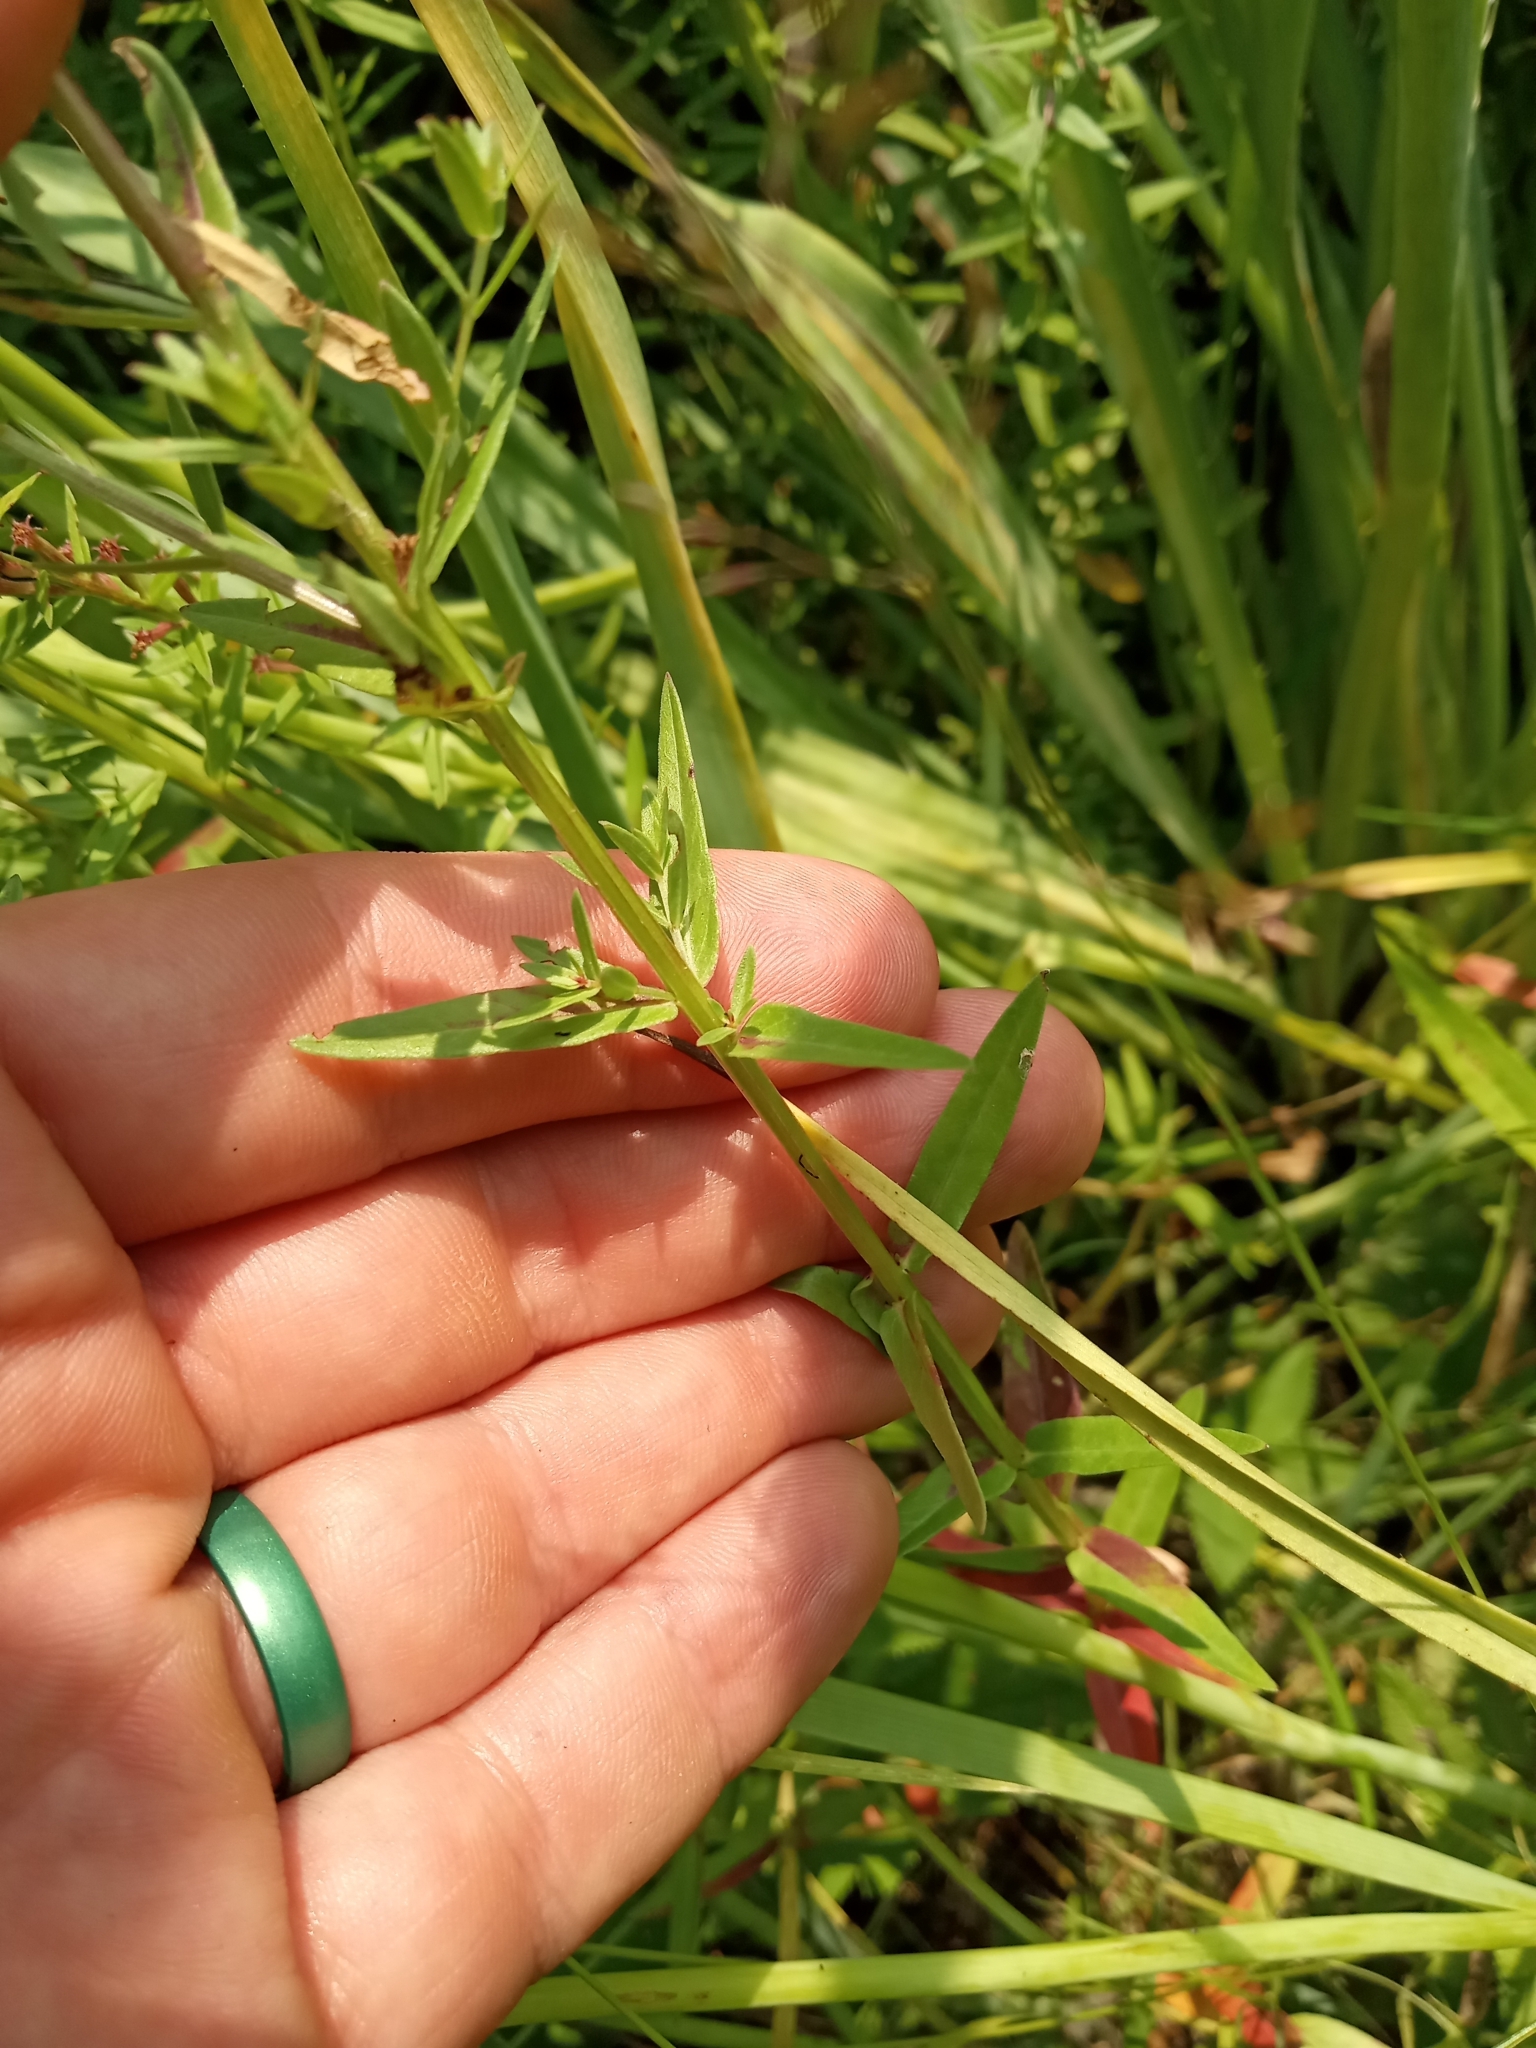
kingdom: Plantae
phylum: Tracheophyta
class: Magnoliopsida
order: Myrtales
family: Lythraceae
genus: Lythrum
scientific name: Lythrum alatum
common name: Winged loosestrife
